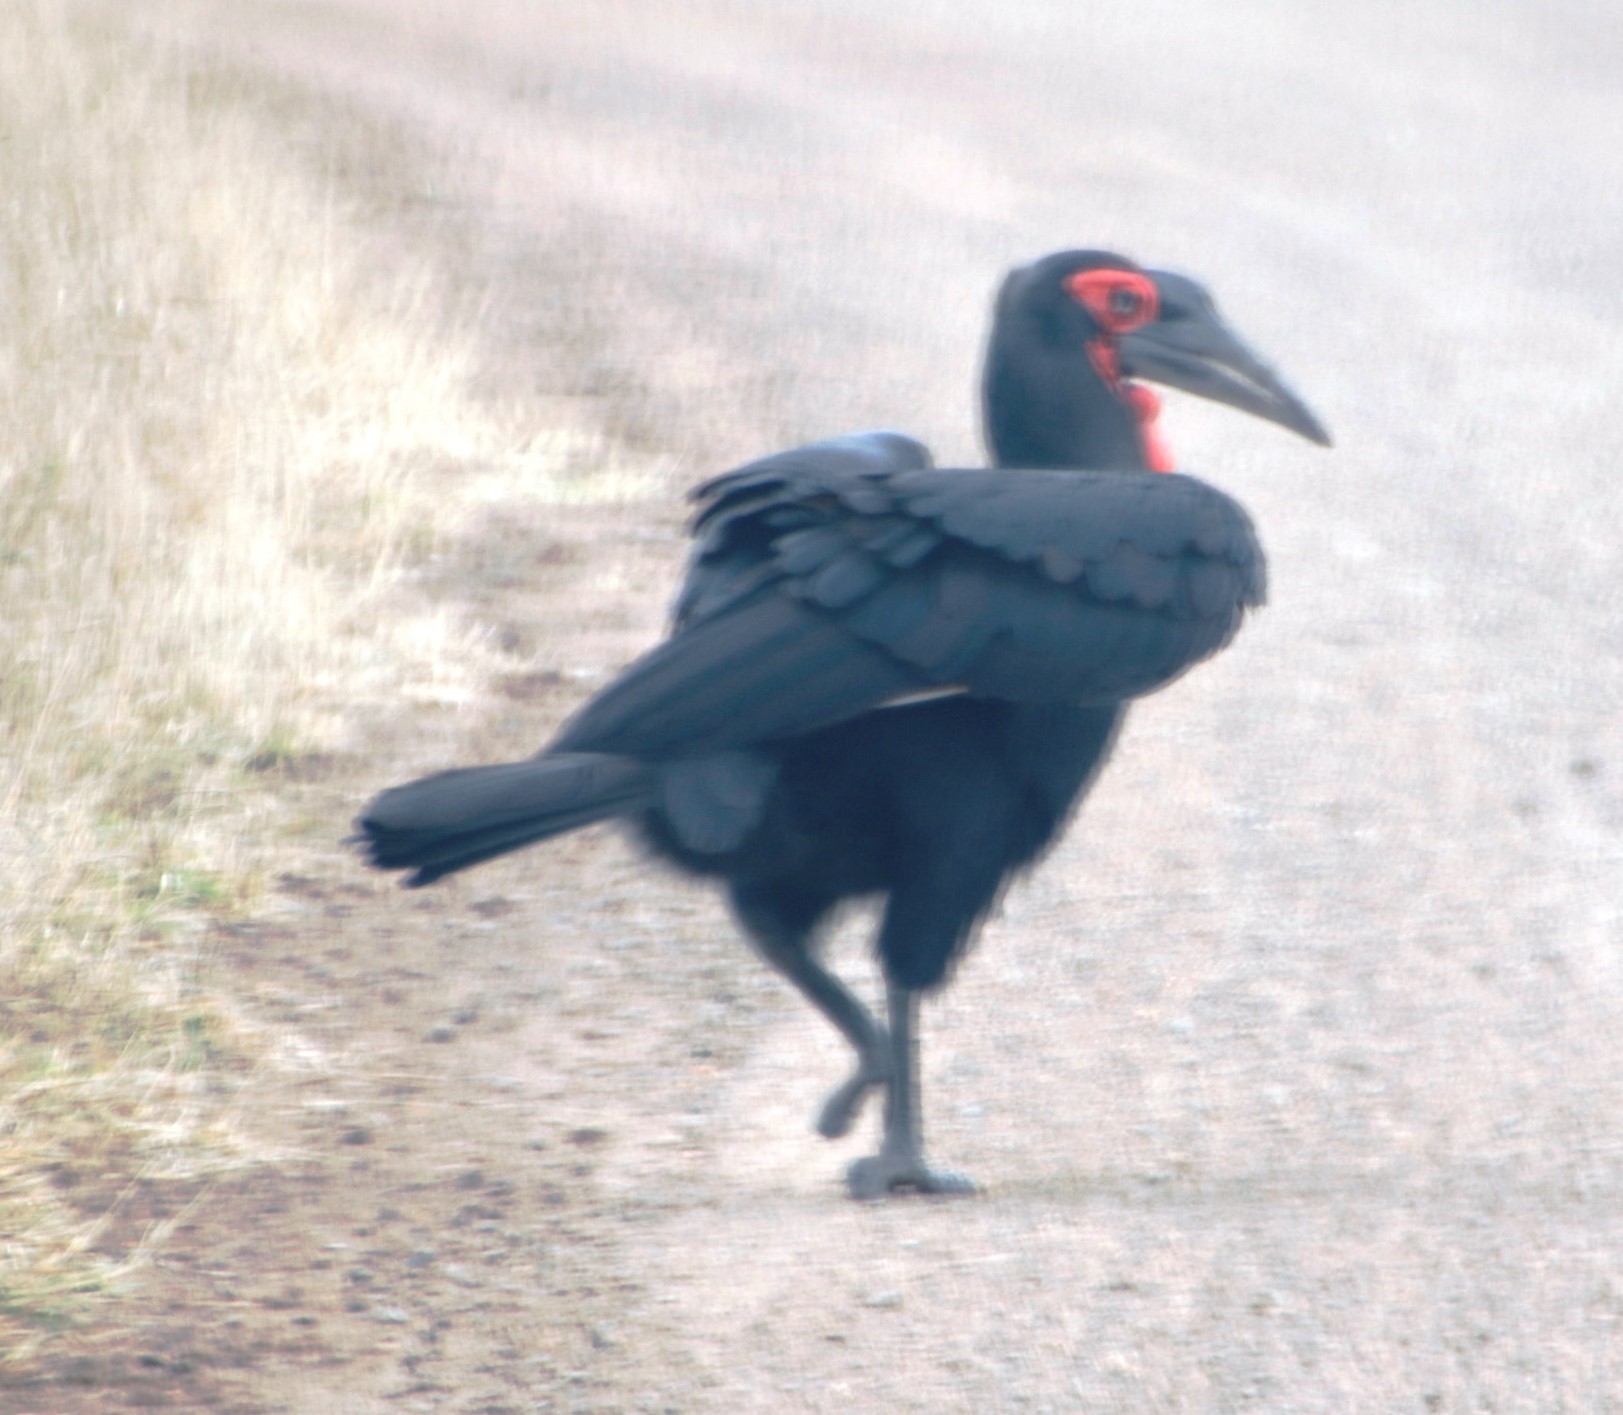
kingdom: Animalia
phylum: Chordata
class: Aves
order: Bucerotiformes
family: Bucorvidae
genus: Bucorvus
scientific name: Bucorvus leadbeateri
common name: Southern ground-hornbill
